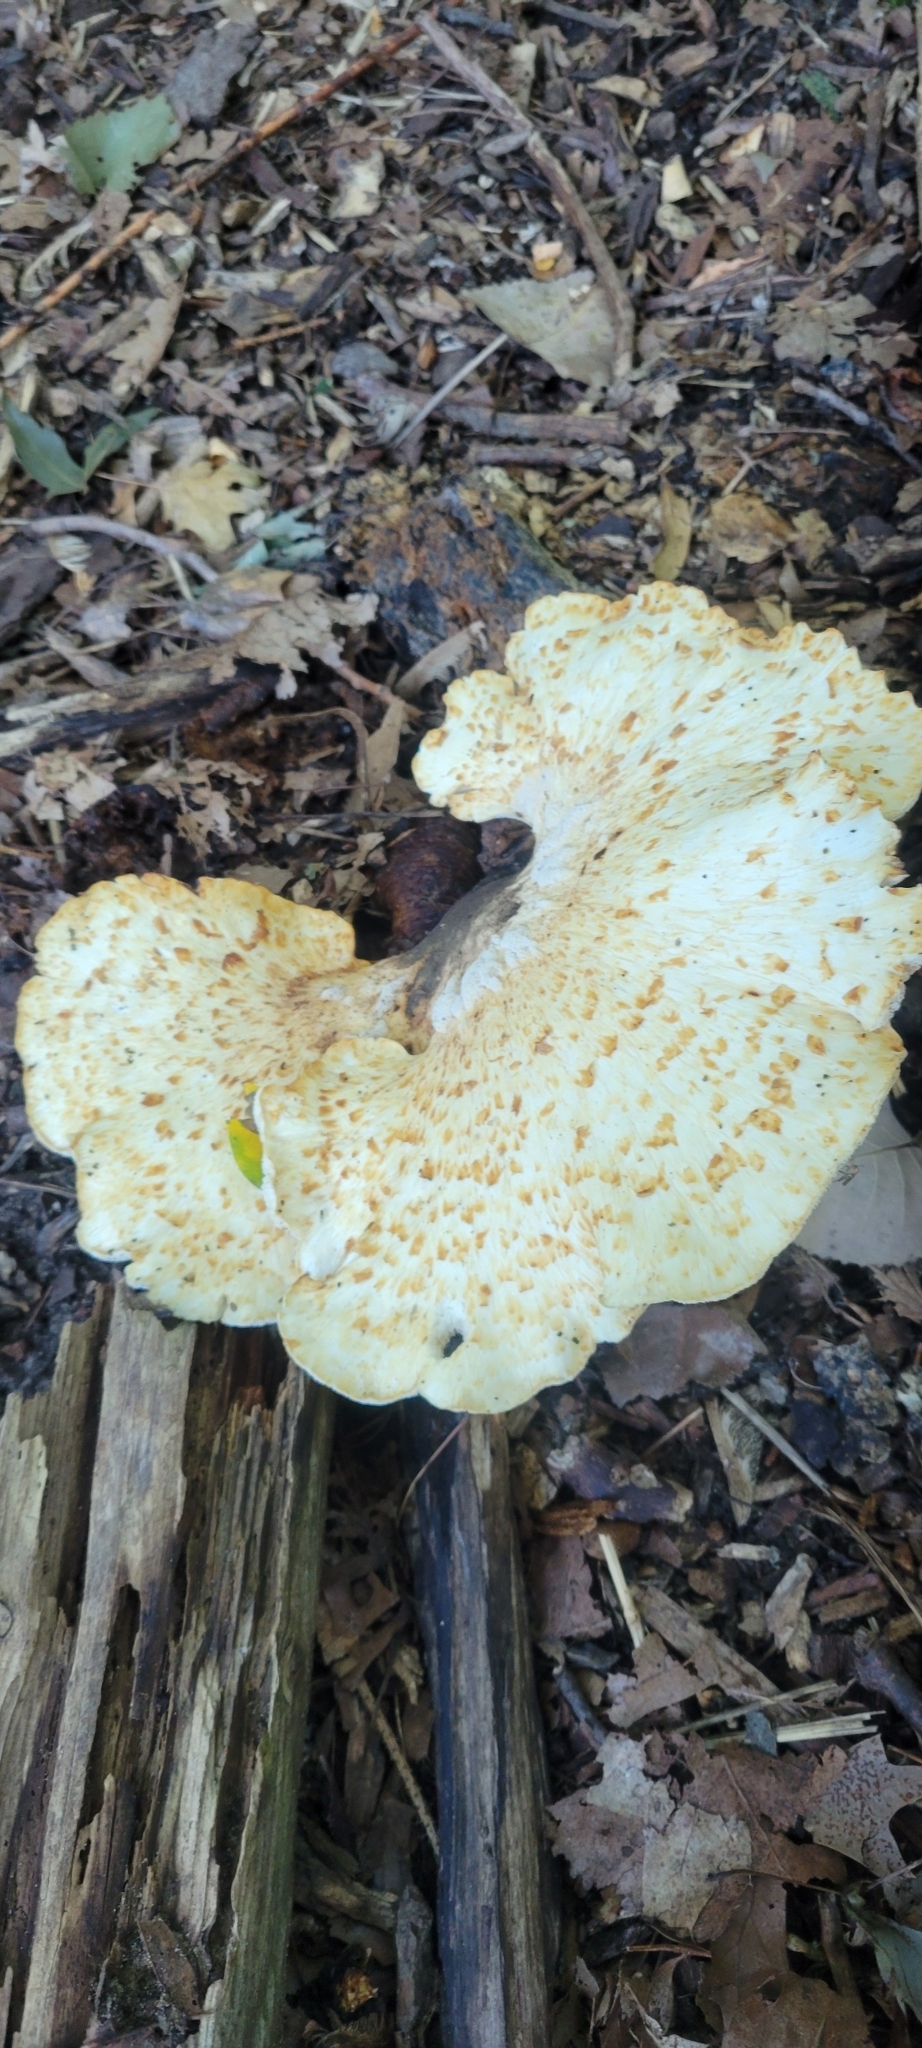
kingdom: Fungi
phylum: Basidiomycota
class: Agaricomycetes
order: Polyporales
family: Polyporaceae
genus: Cerioporus
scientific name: Cerioporus squamosus
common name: Dryad's saddle
